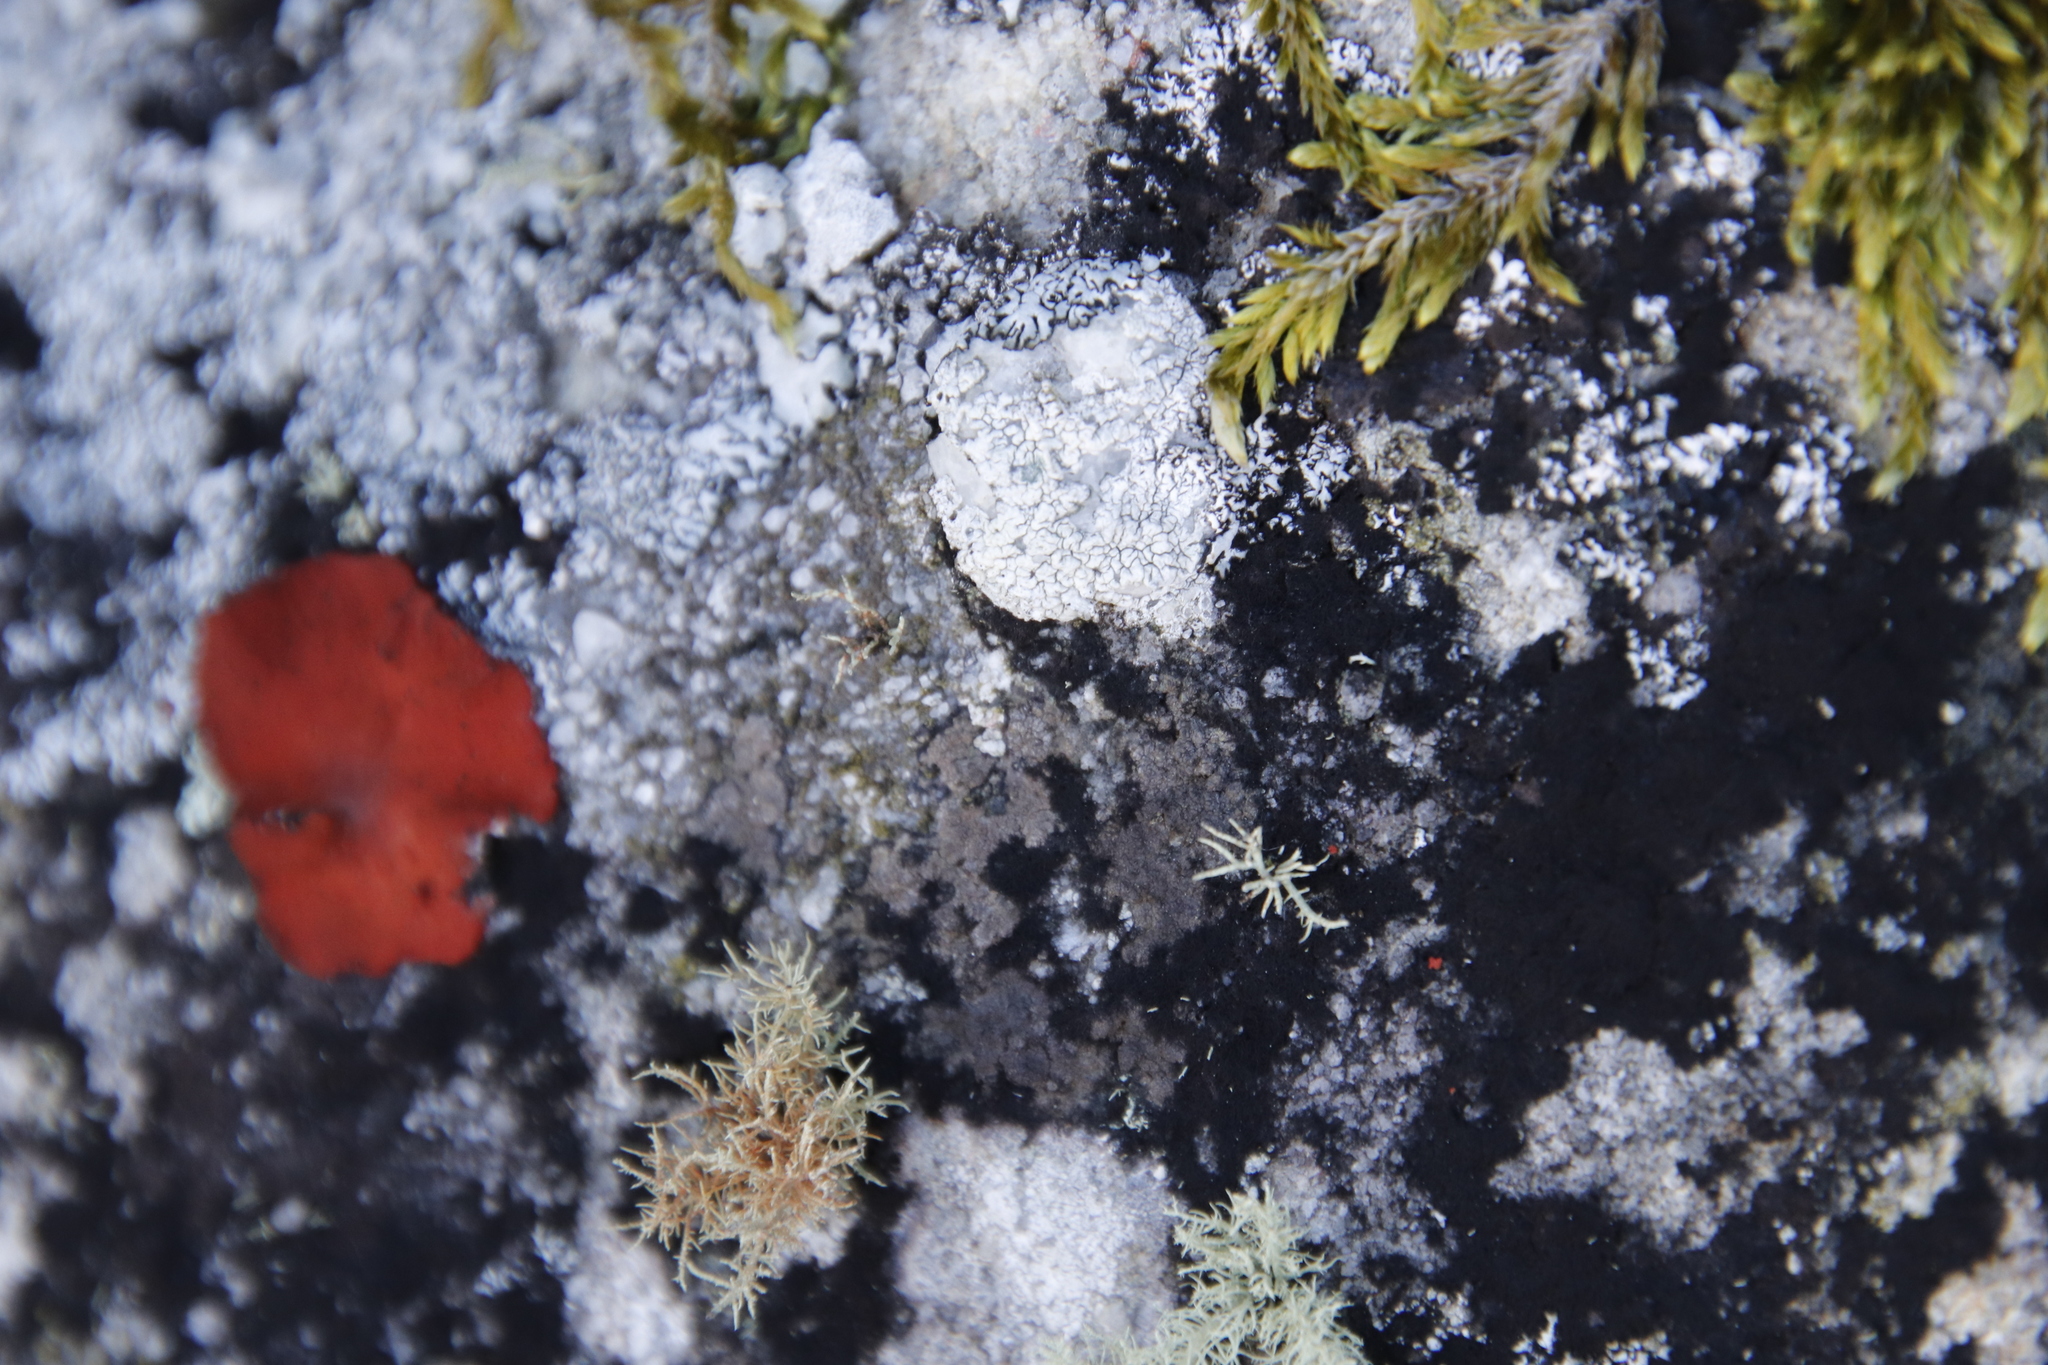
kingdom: Fungi
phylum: Ascomycota
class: Lecanoromycetes
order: Umbilicariales
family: Umbilicariaceae
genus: Lasallia
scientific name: Lasallia rubiginosa
